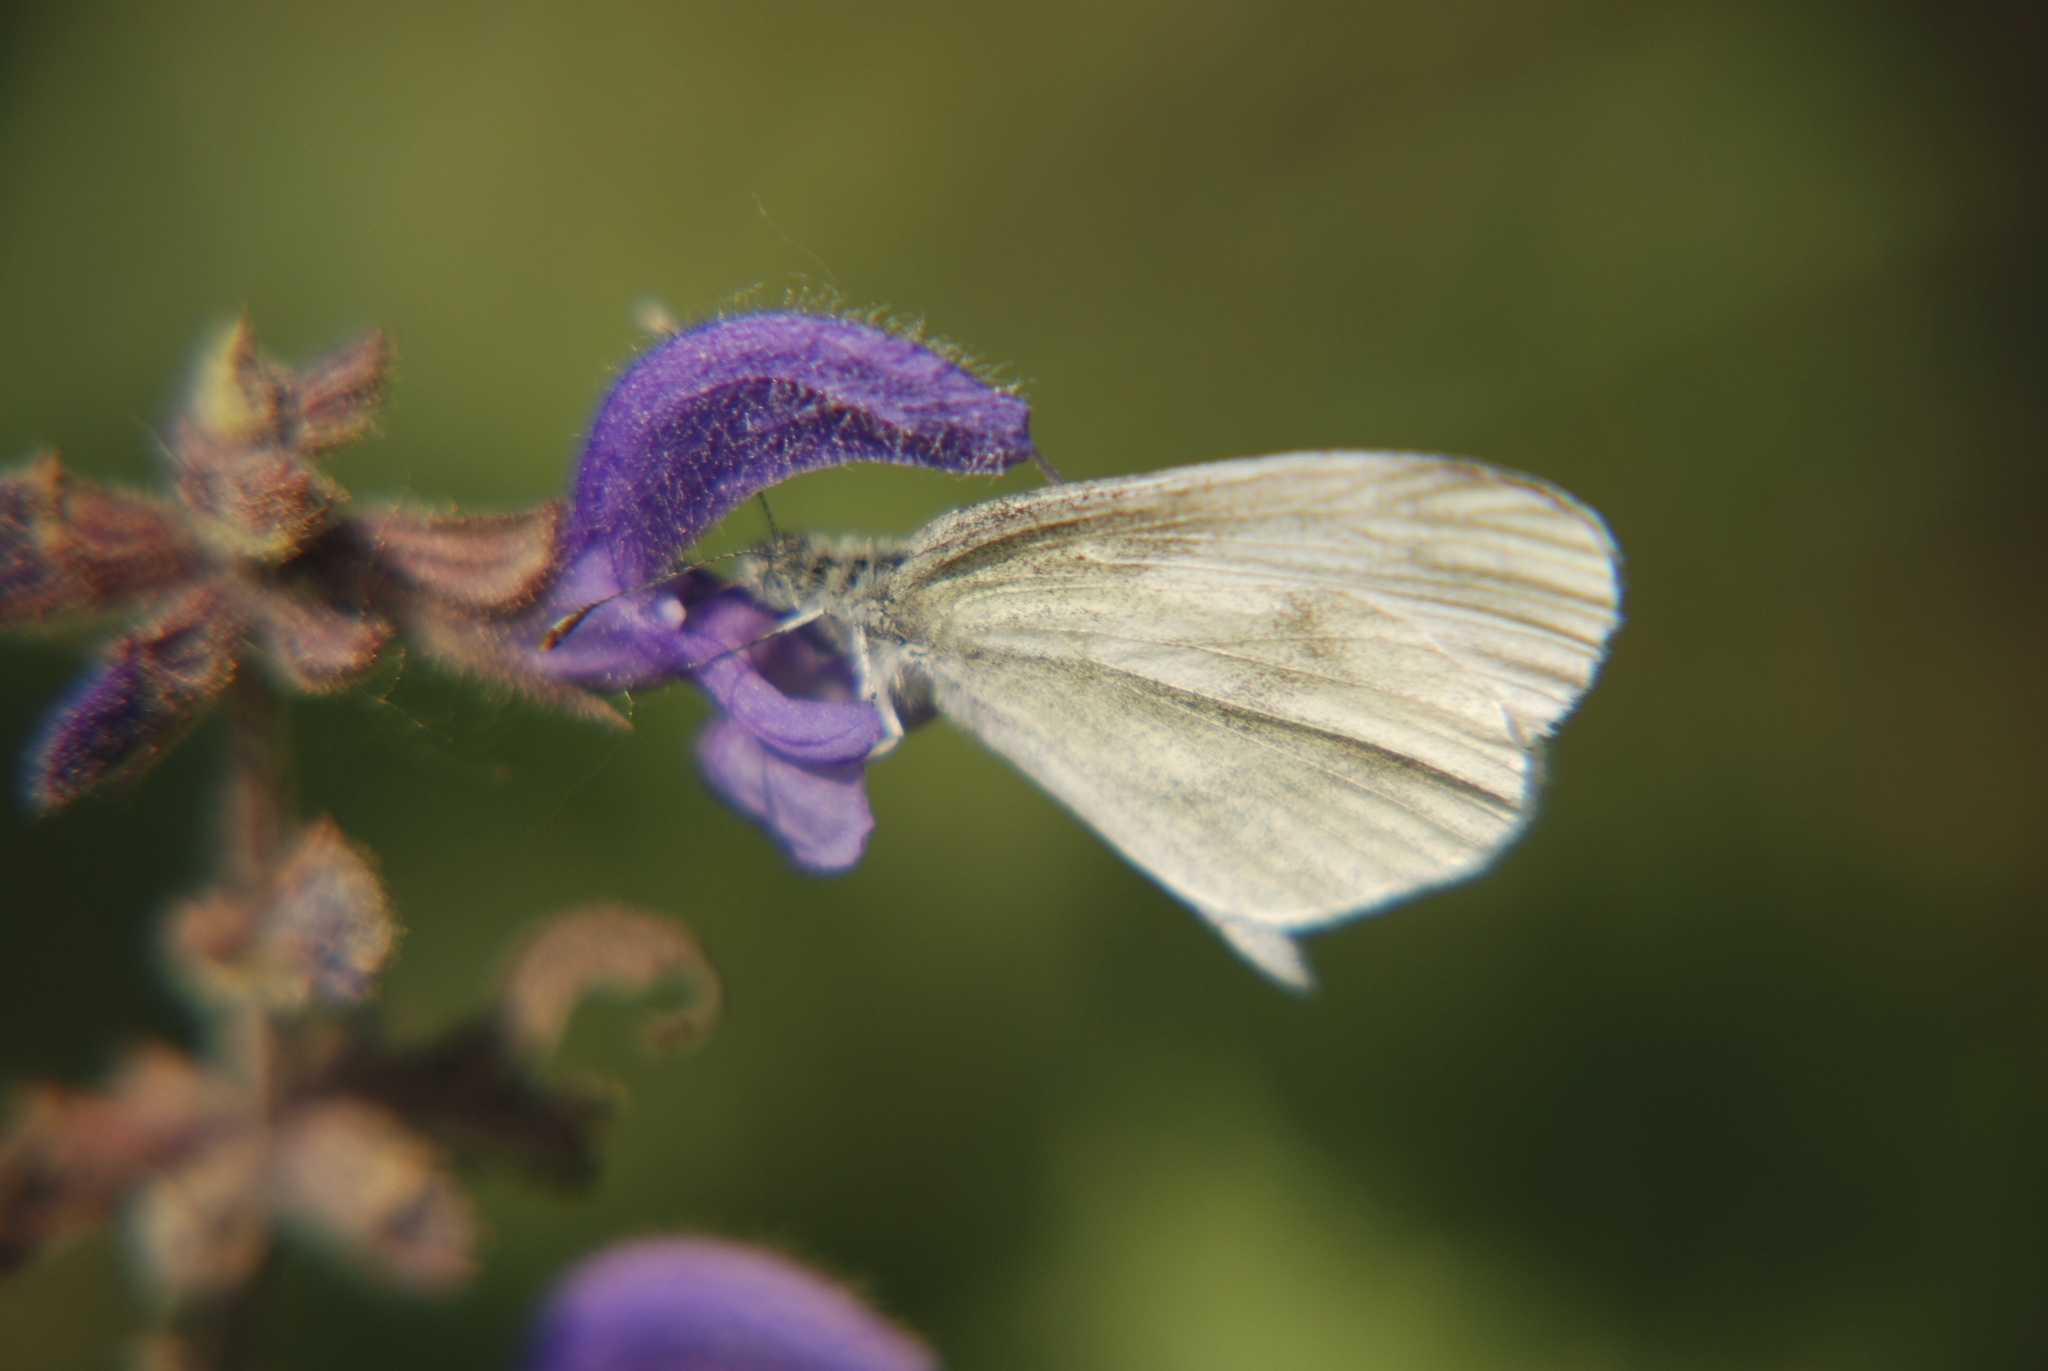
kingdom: Animalia
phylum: Arthropoda
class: Insecta
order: Lepidoptera
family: Pieridae
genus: Leptidea
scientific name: Leptidea
